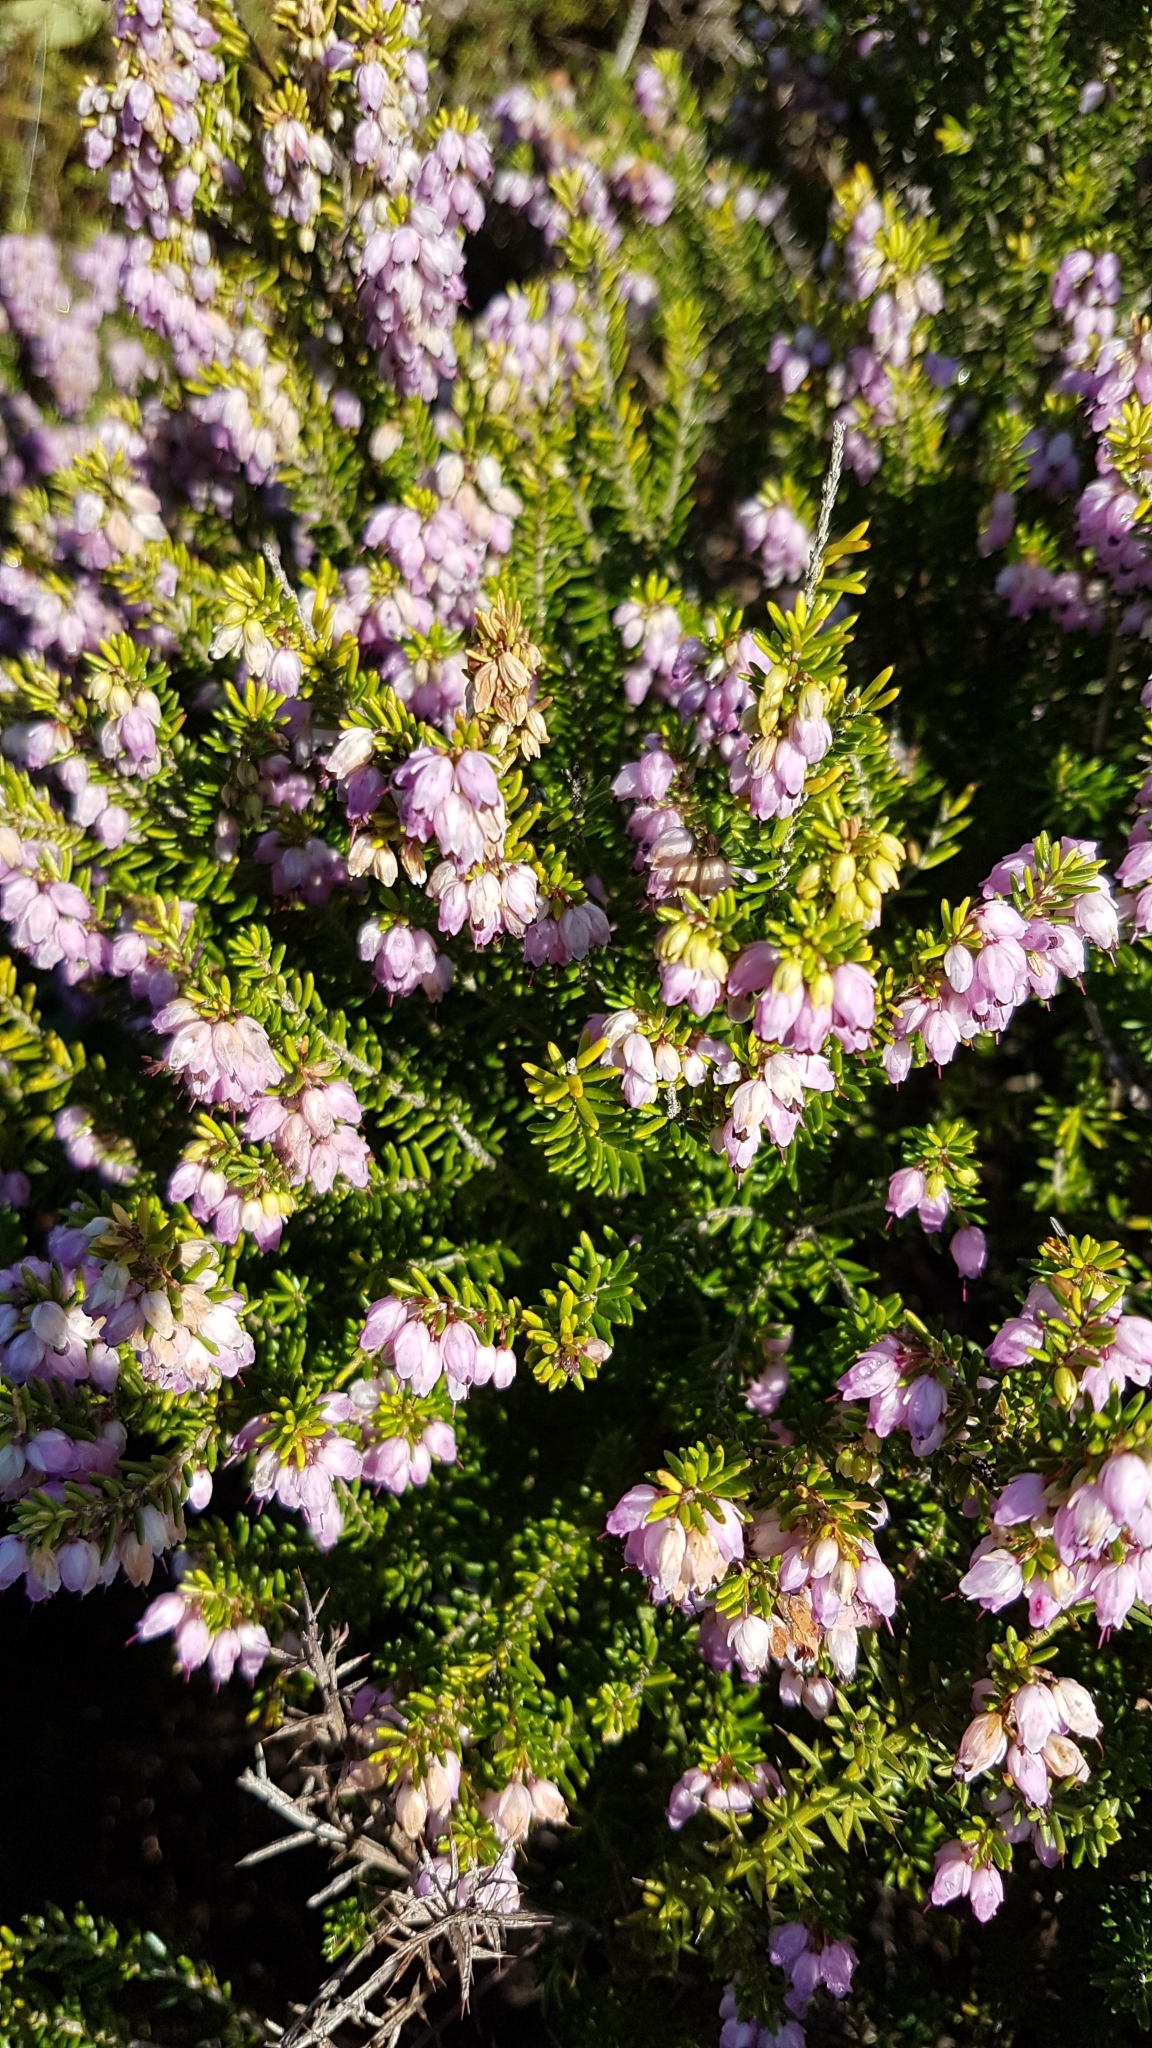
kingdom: Plantae
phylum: Tracheophyta
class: Magnoliopsida
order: Ericales
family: Ericaceae
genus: Erica
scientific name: Erica erigena
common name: Irish heath
